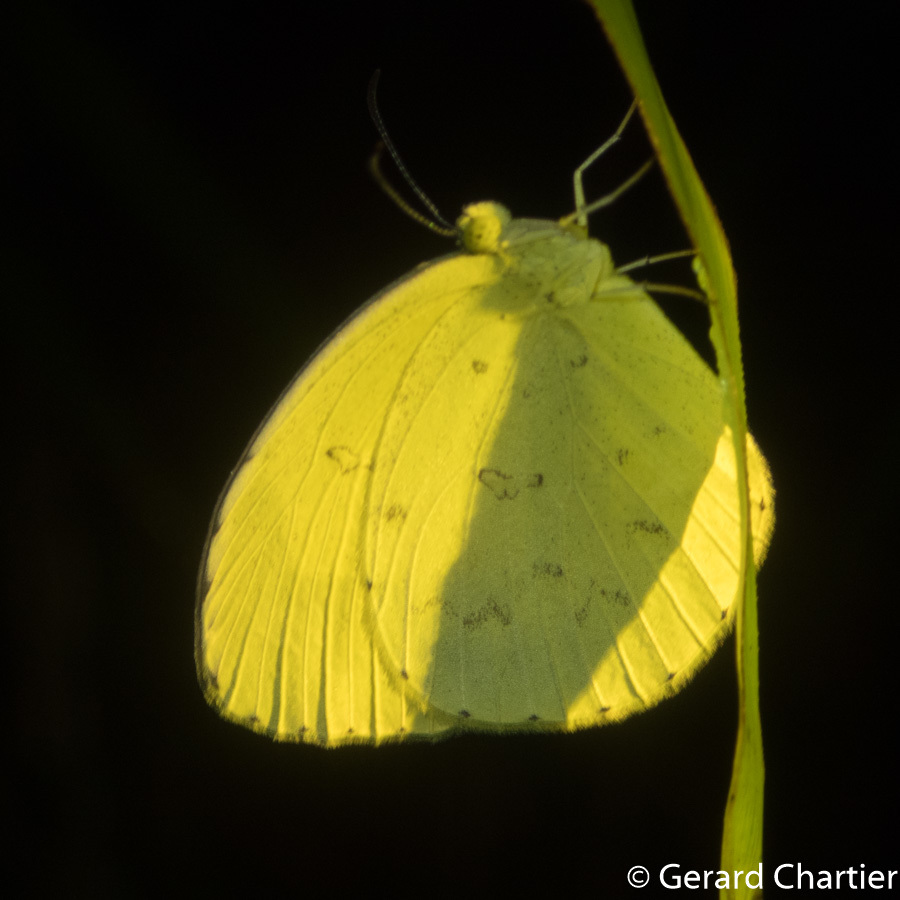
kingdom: Animalia
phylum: Arthropoda
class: Insecta
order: Lepidoptera
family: Pieridae
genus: Eurema
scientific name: Eurema hecabe
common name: Pale grass yellow
